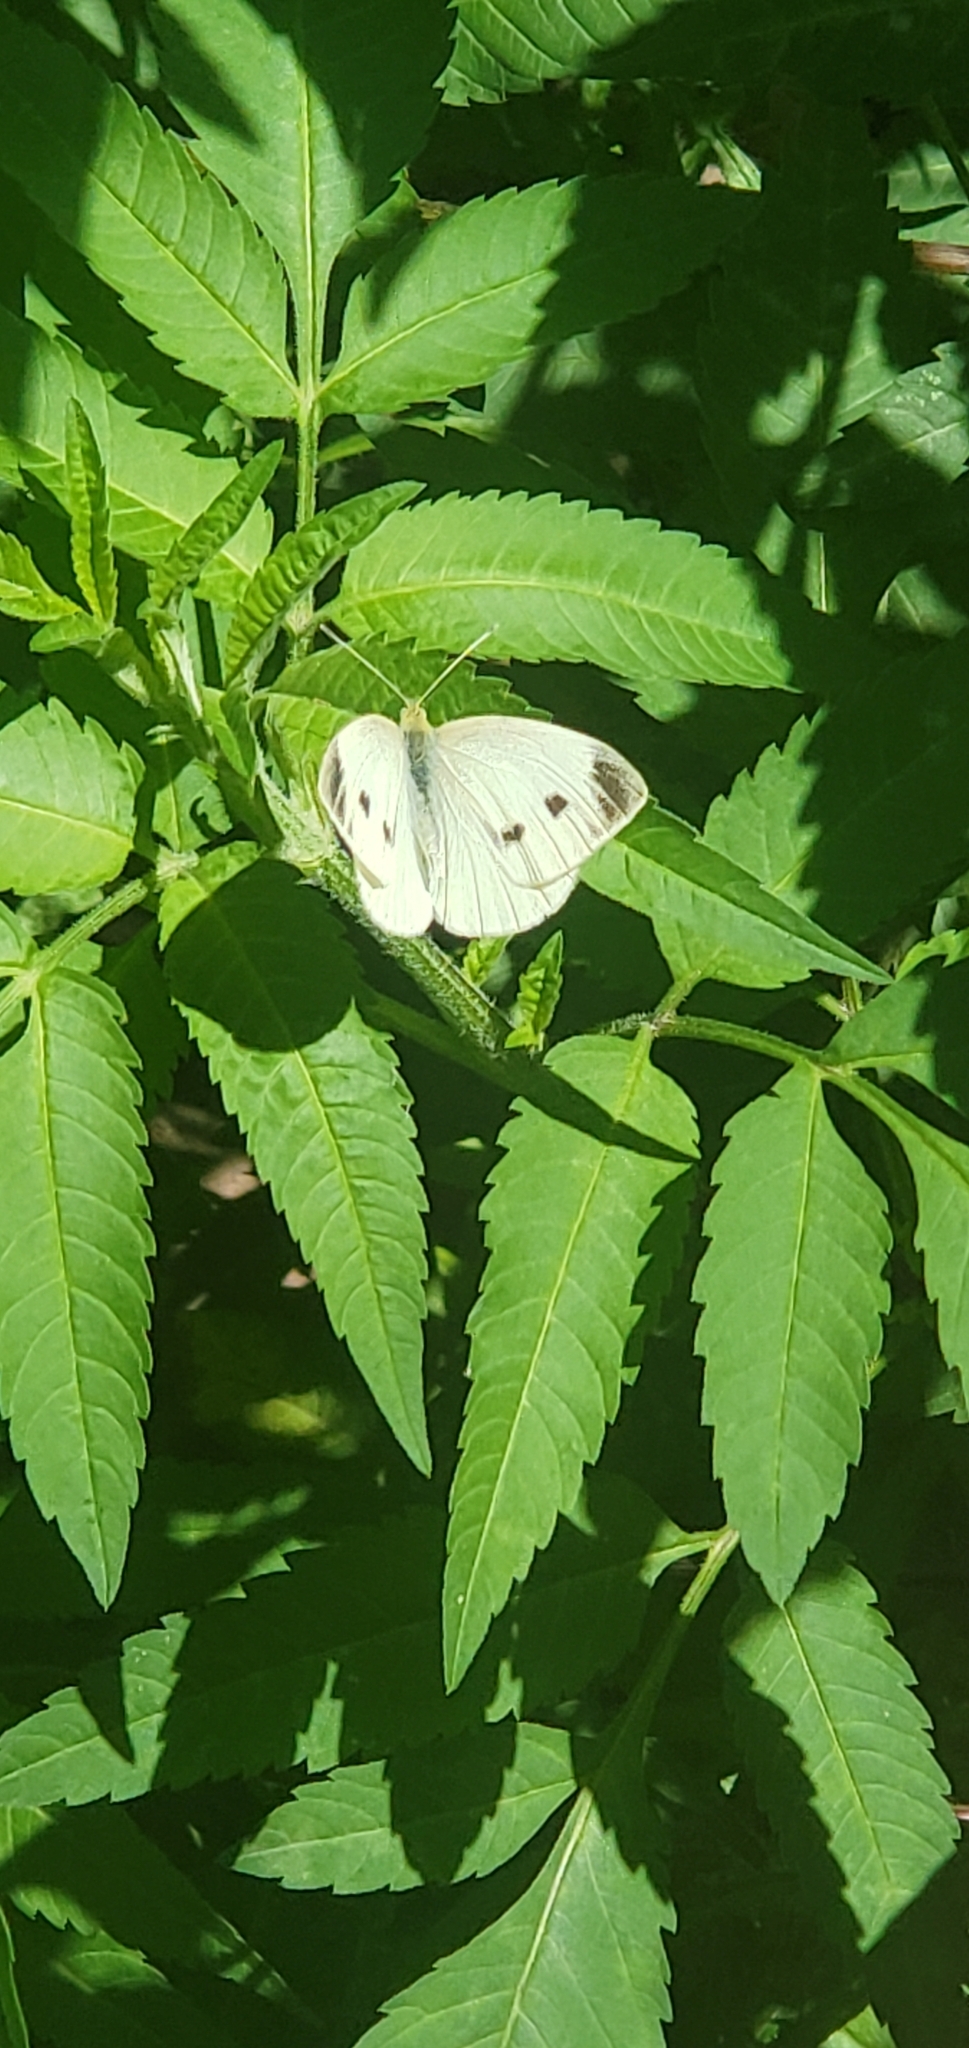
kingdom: Animalia
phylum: Arthropoda
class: Insecta
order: Lepidoptera
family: Pieridae
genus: Pieris
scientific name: Pieris rapae
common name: Small white
